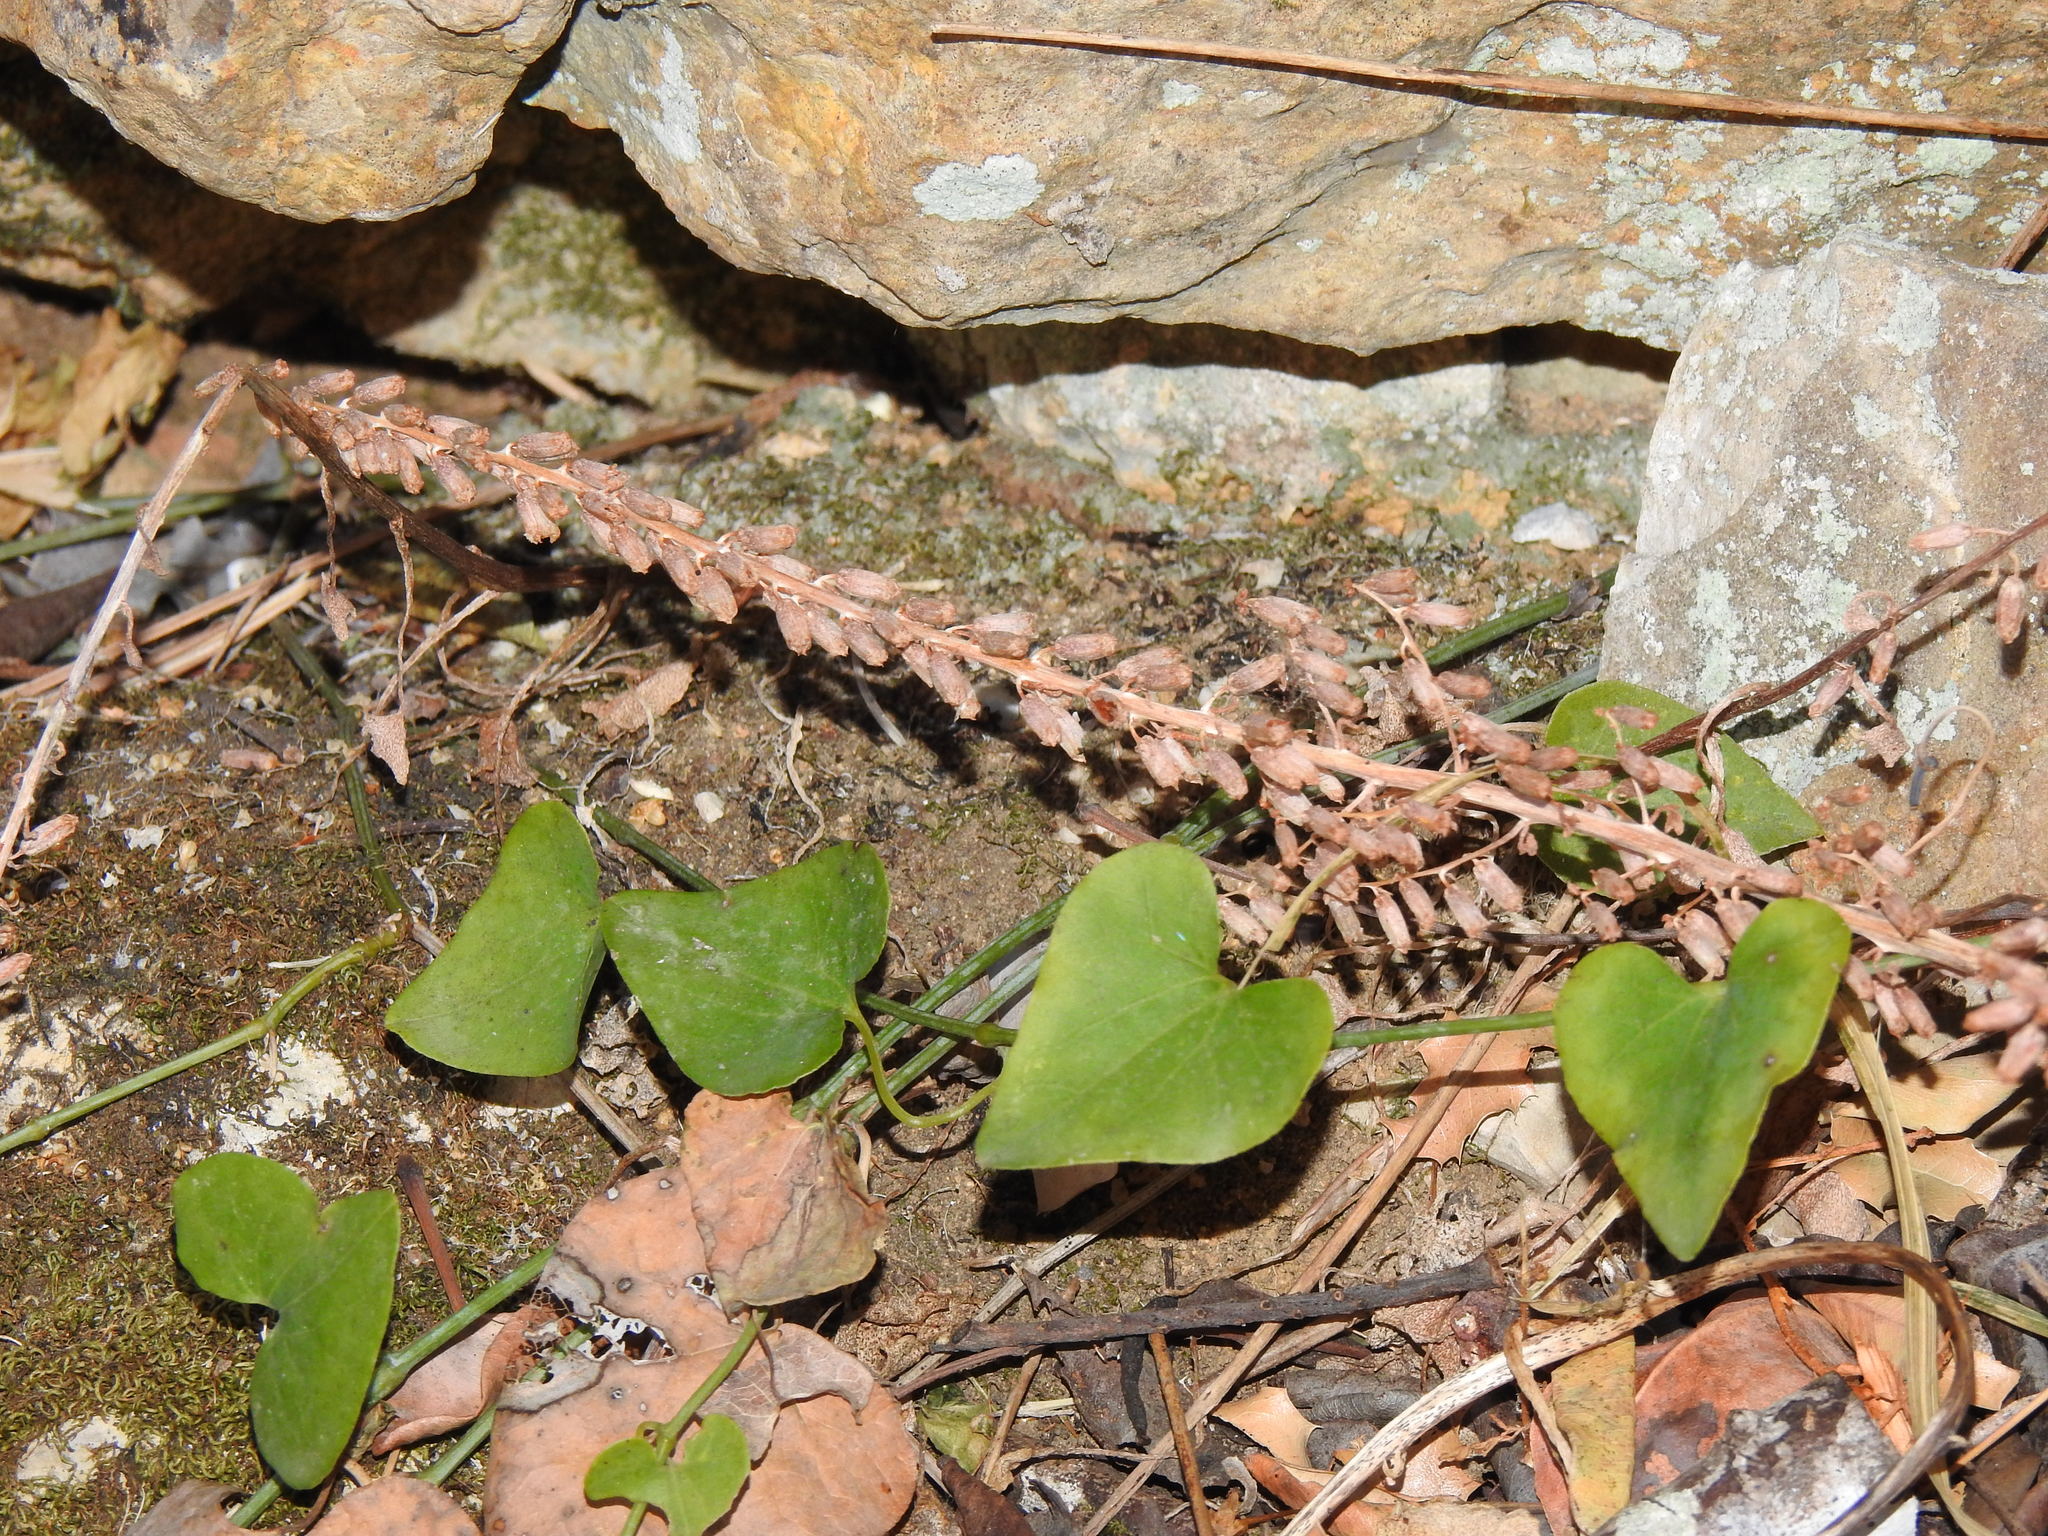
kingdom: Plantae
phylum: Tracheophyta
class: Magnoliopsida
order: Saxifragales
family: Crassulaceae
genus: Umbilicus
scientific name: Umbilicus rupestris
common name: Navelwort
